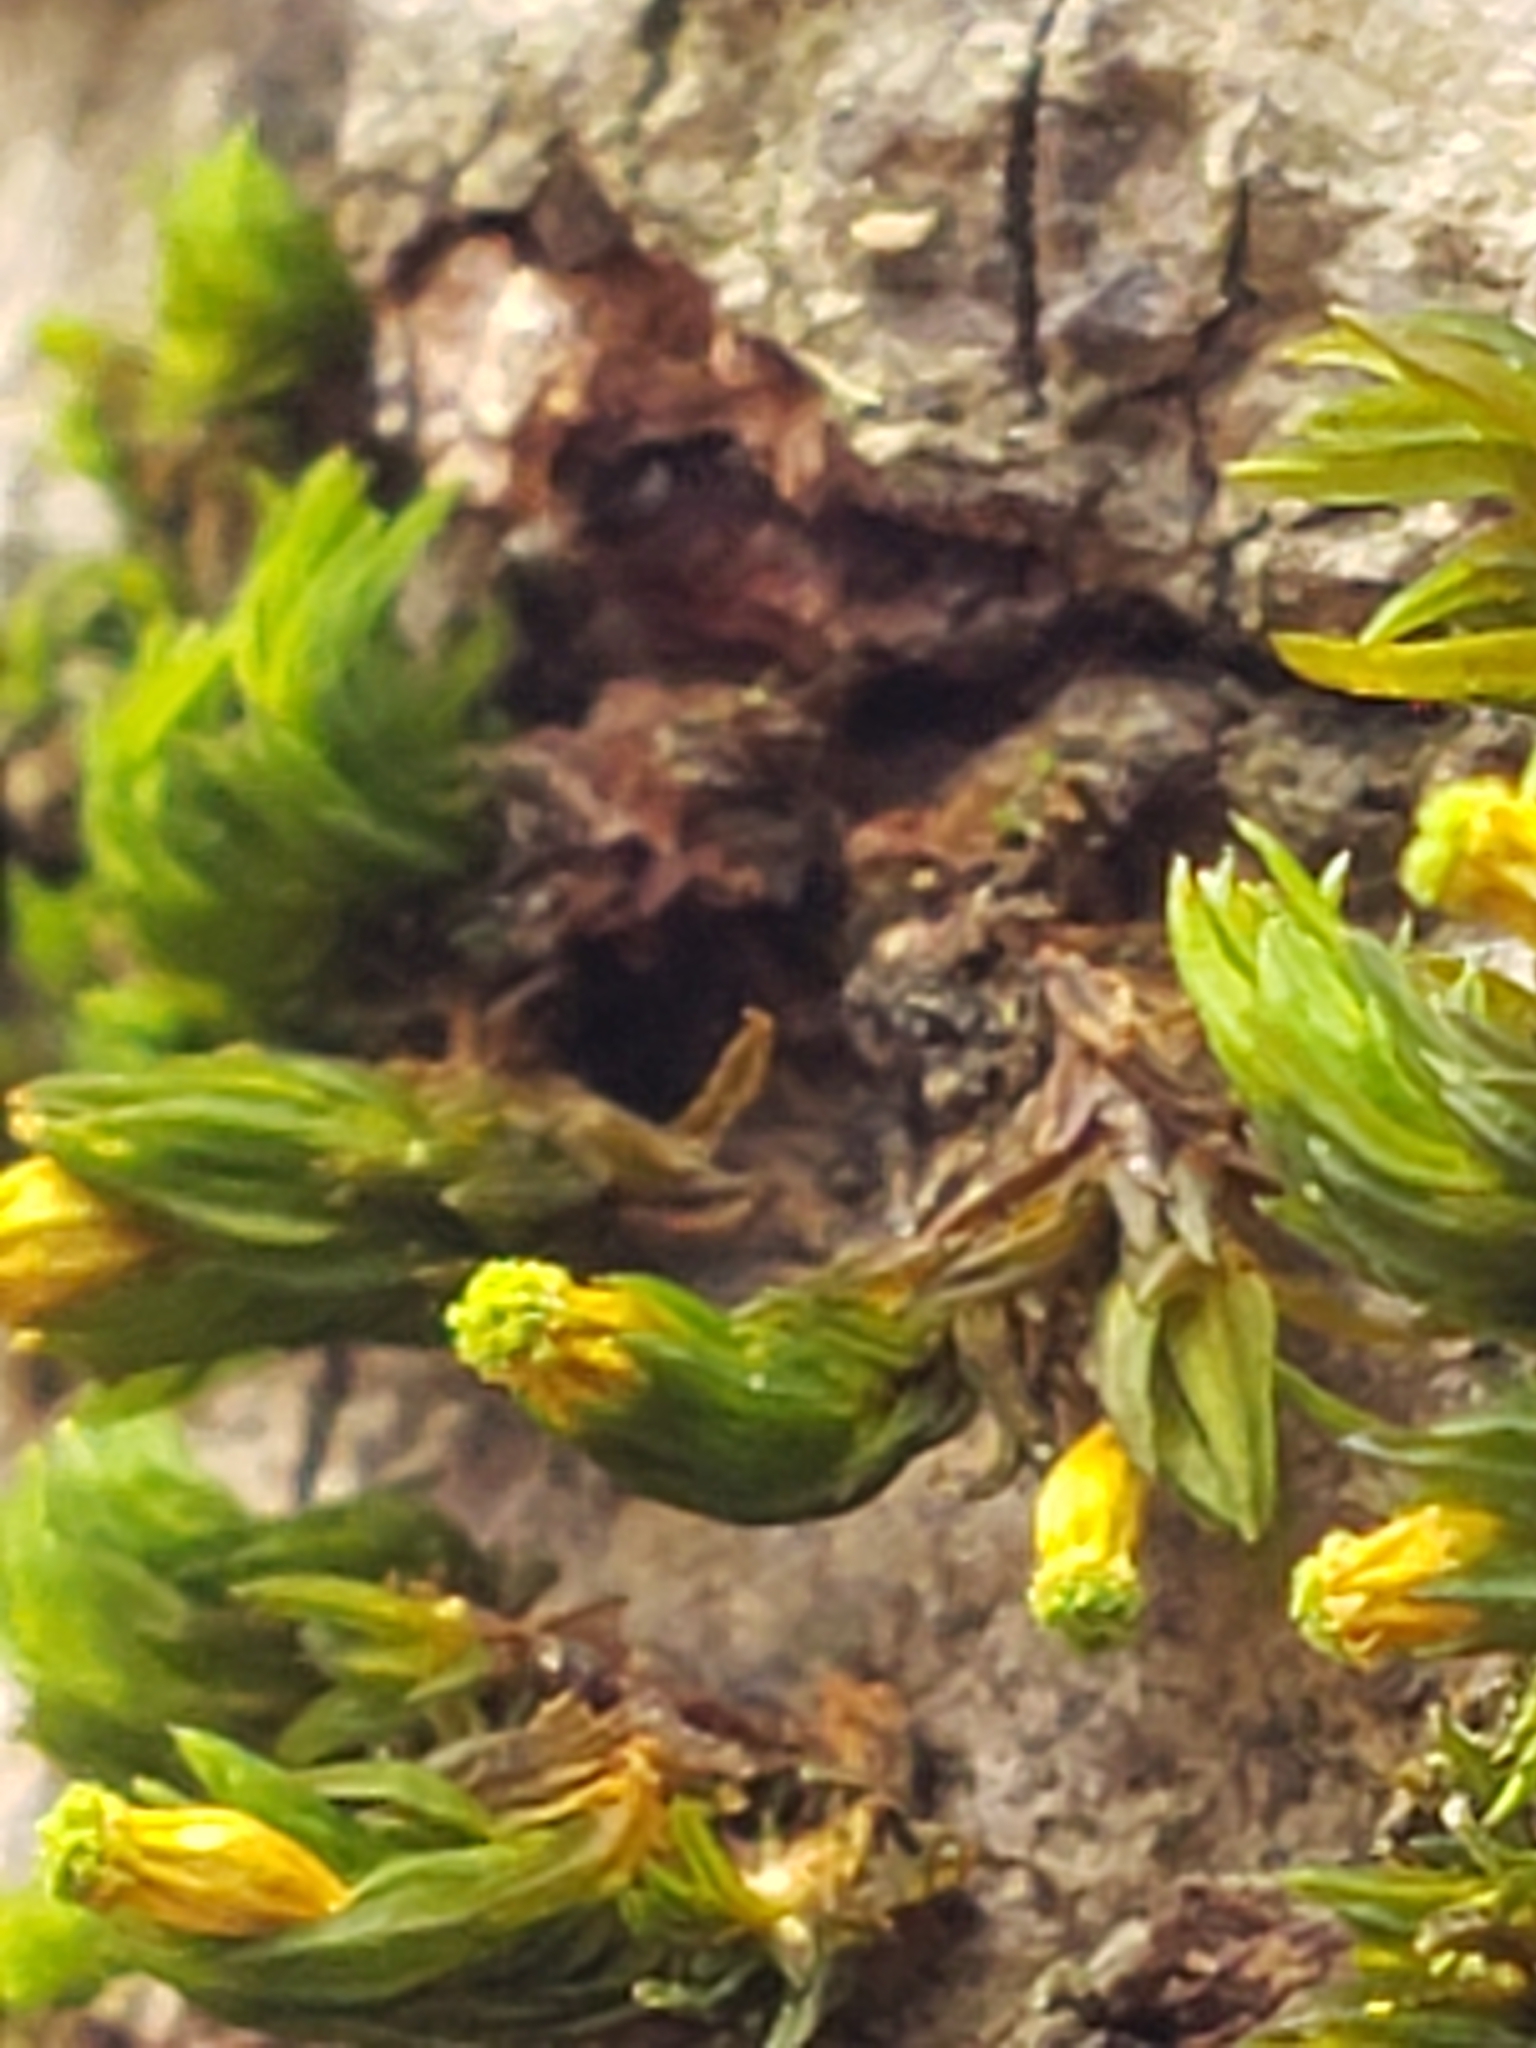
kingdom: Plantae
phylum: Bryophyta
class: Bryopsida
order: Orthotrichales
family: Orthotrichaceae
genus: Orthotrichum
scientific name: Orthotrichum stellatum
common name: Starlike bristle moss
